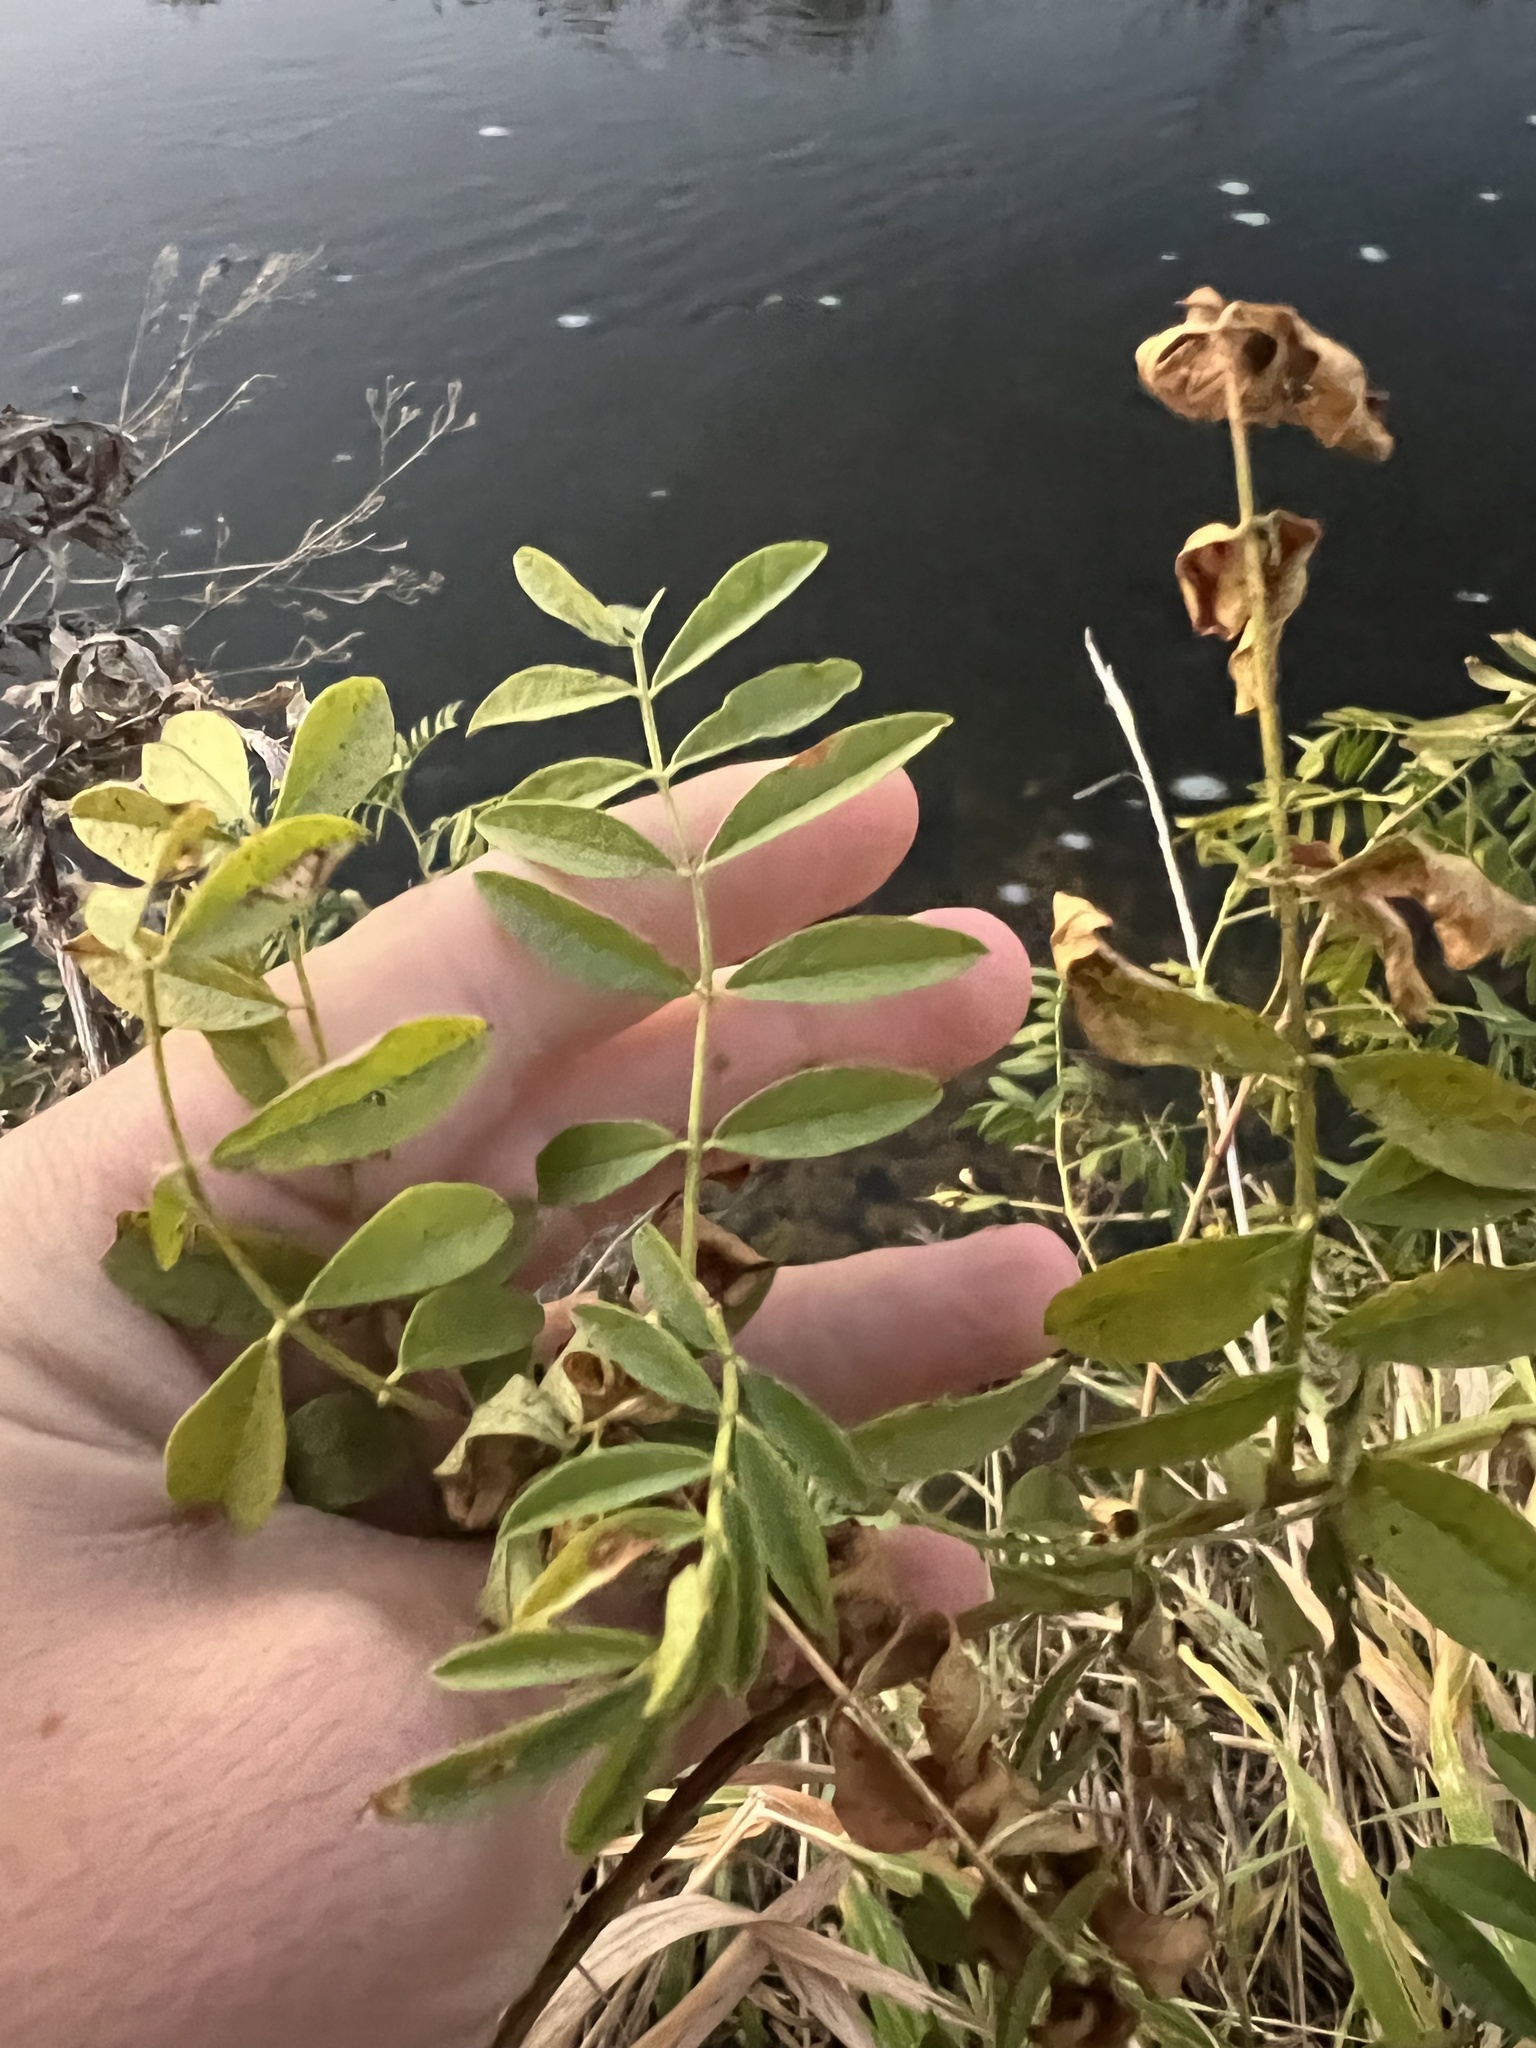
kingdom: Plantae
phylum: Tracheophyta
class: Magnoliopsida
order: Fabales
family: Fabaceae
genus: Glycyrrhiza
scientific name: Glycyrrhiza lepidota
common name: American liquorice
